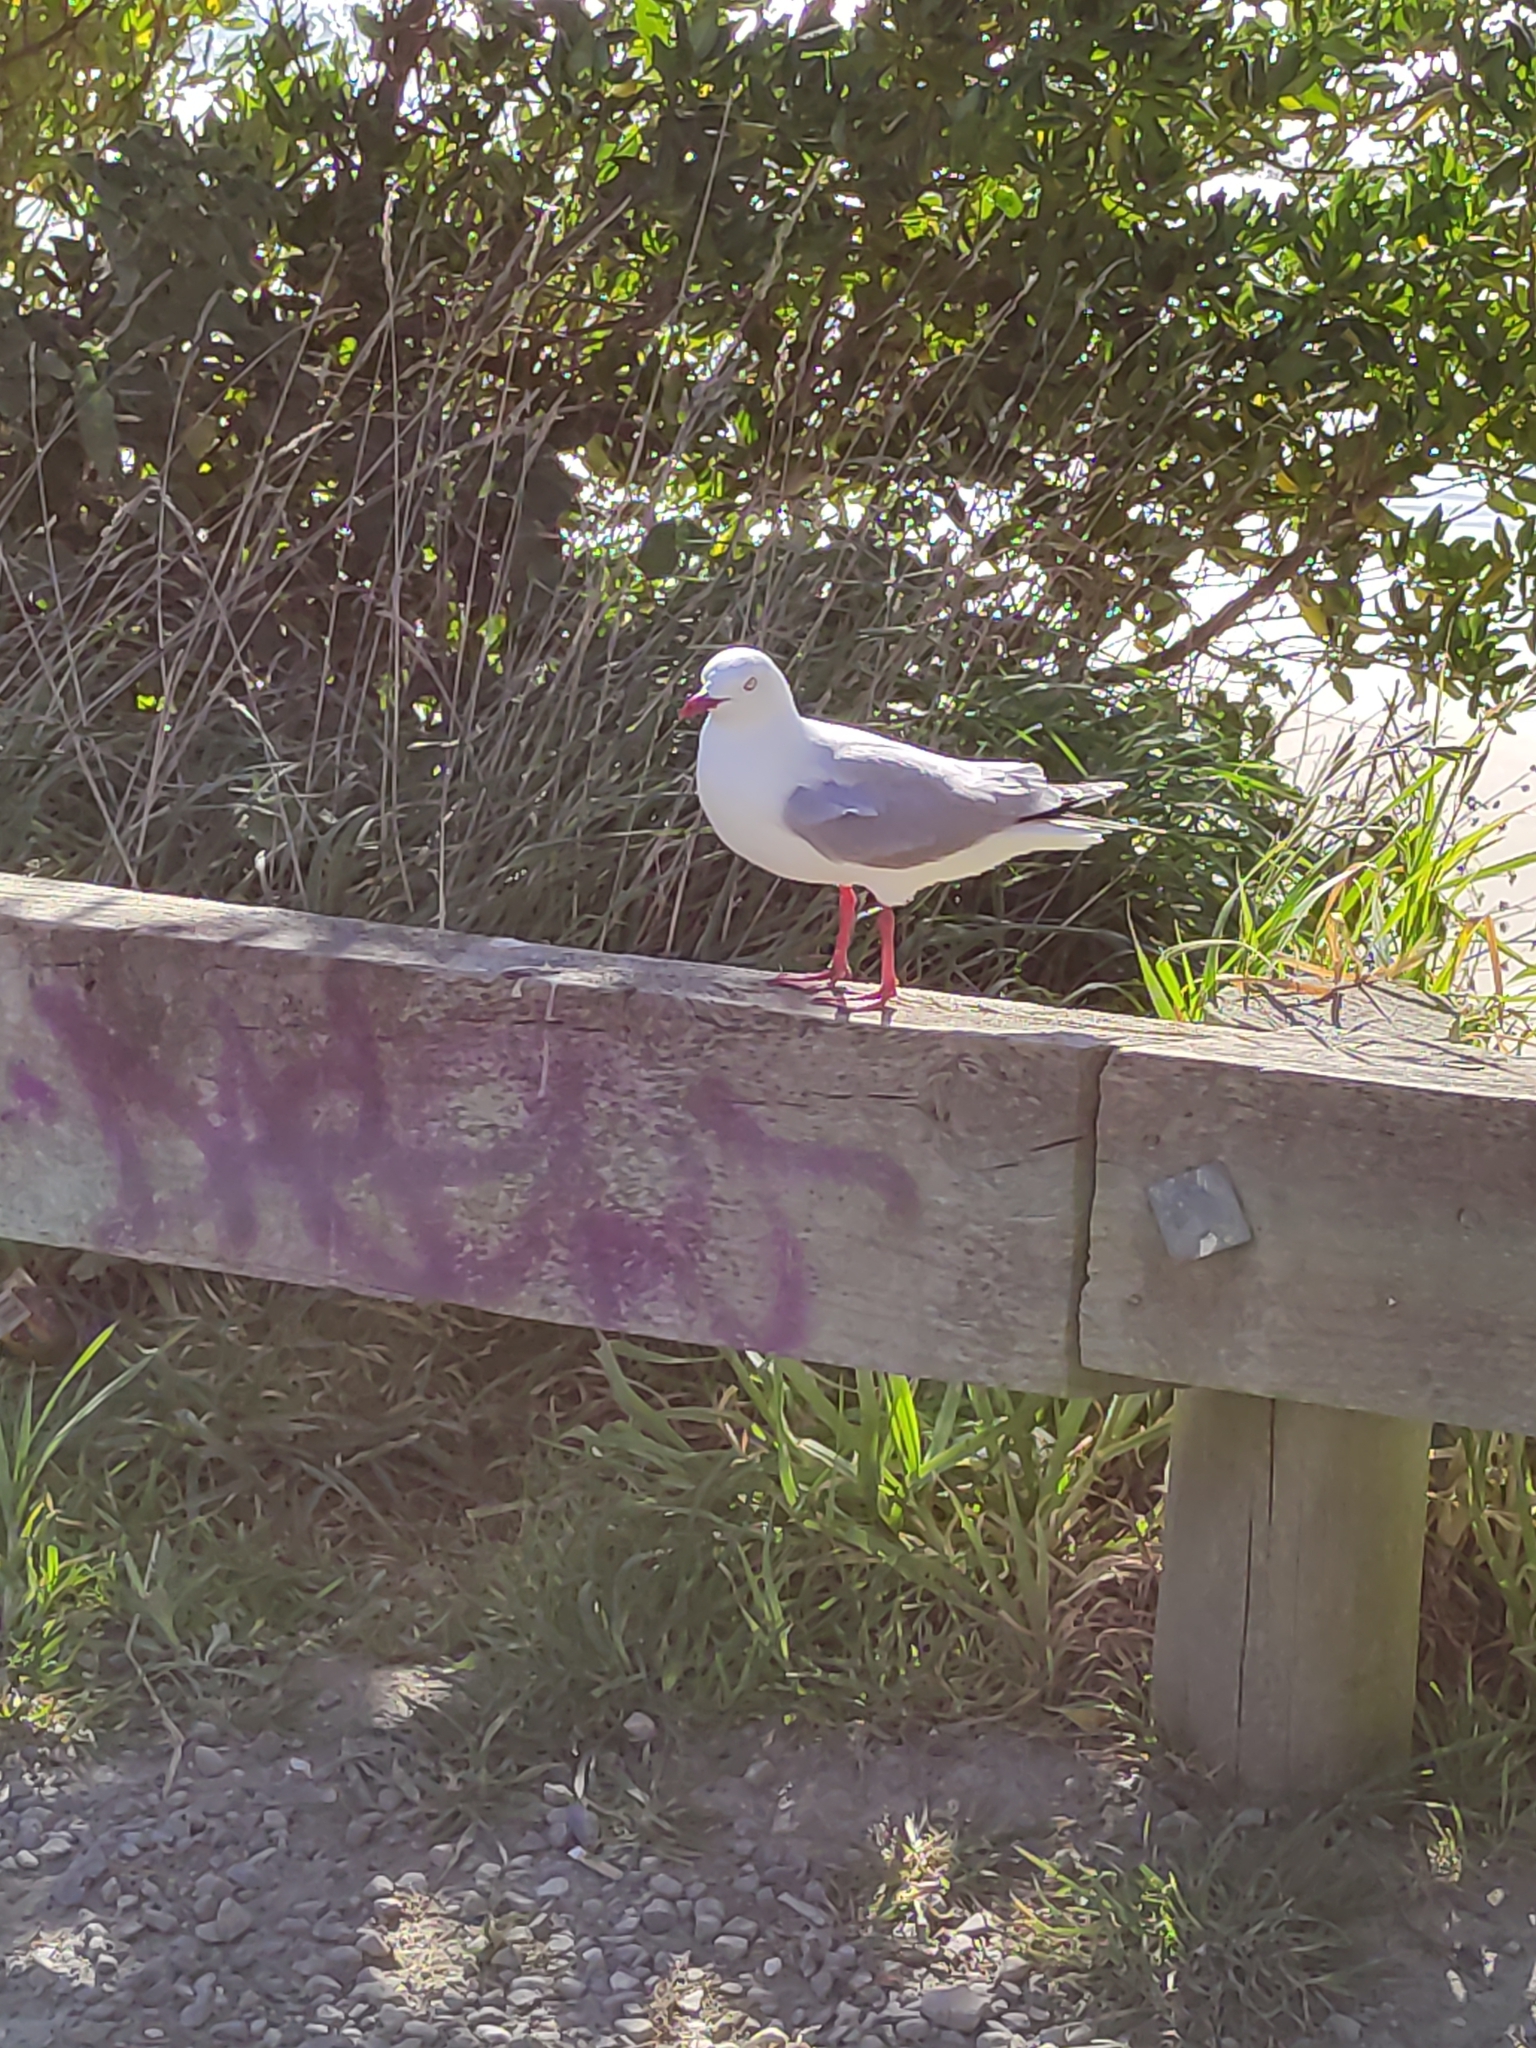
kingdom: Animalia
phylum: Chordata
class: Aves
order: Charadriiformes
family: Laridae
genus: Chroicocephalus
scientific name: Chroicocephalus novaehollandiae
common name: Silver gull
